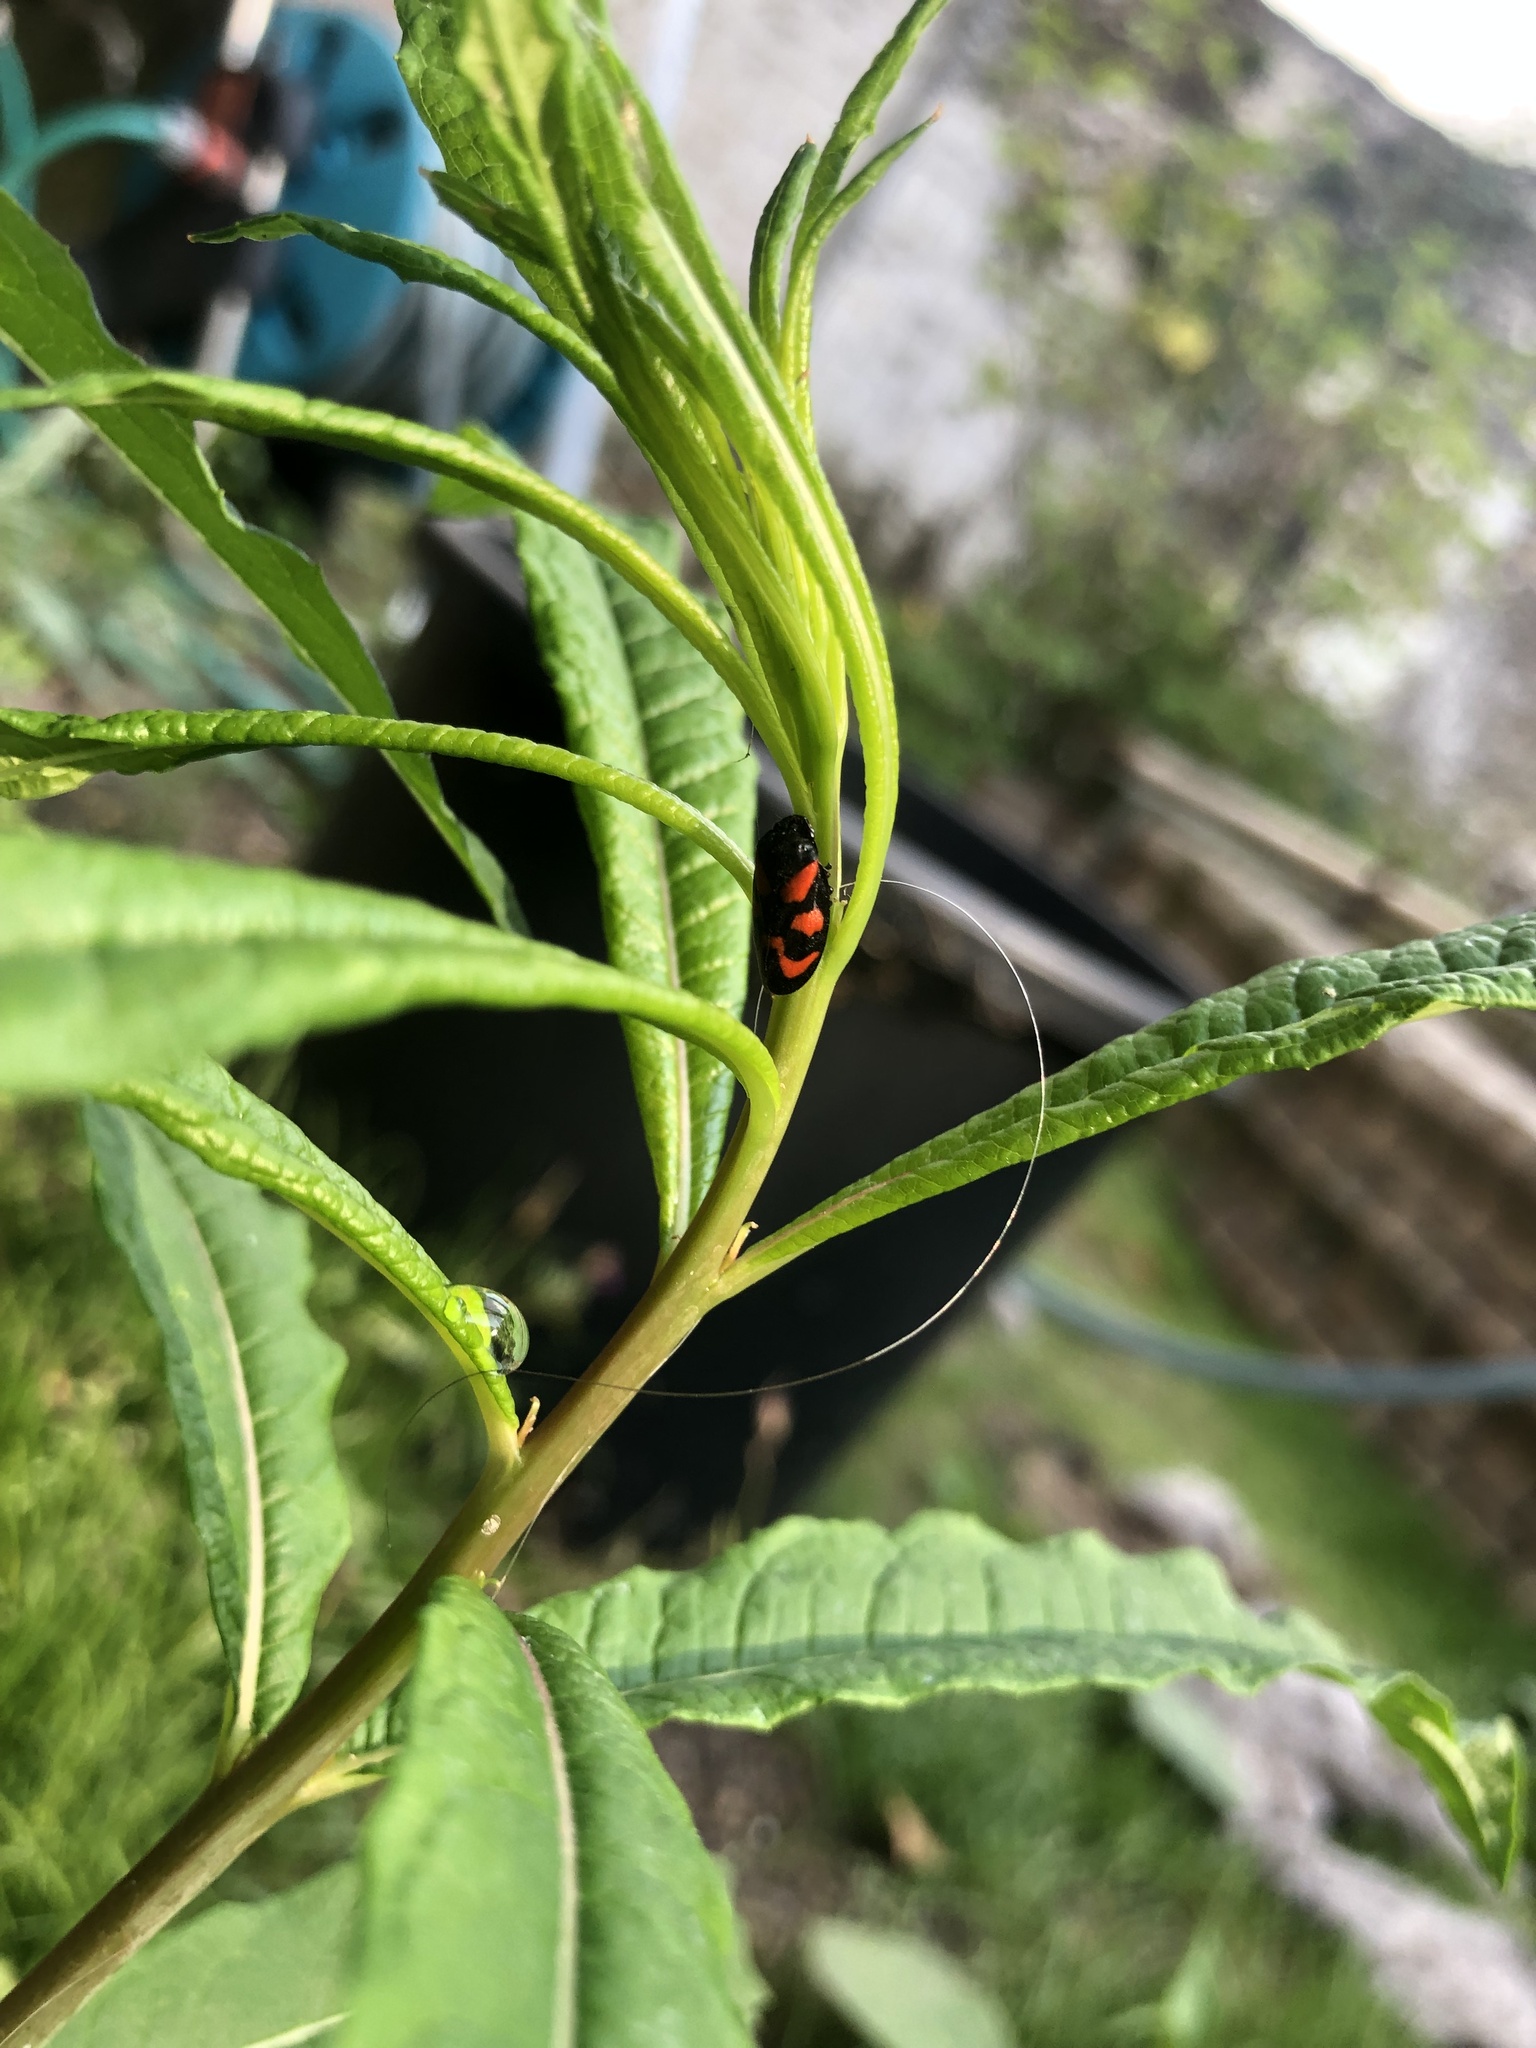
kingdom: Animalia
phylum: Arthropoda
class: Insecta
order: Hemiptera
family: Cercopidae
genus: Cercopis
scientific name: Cercopis vulnerata
